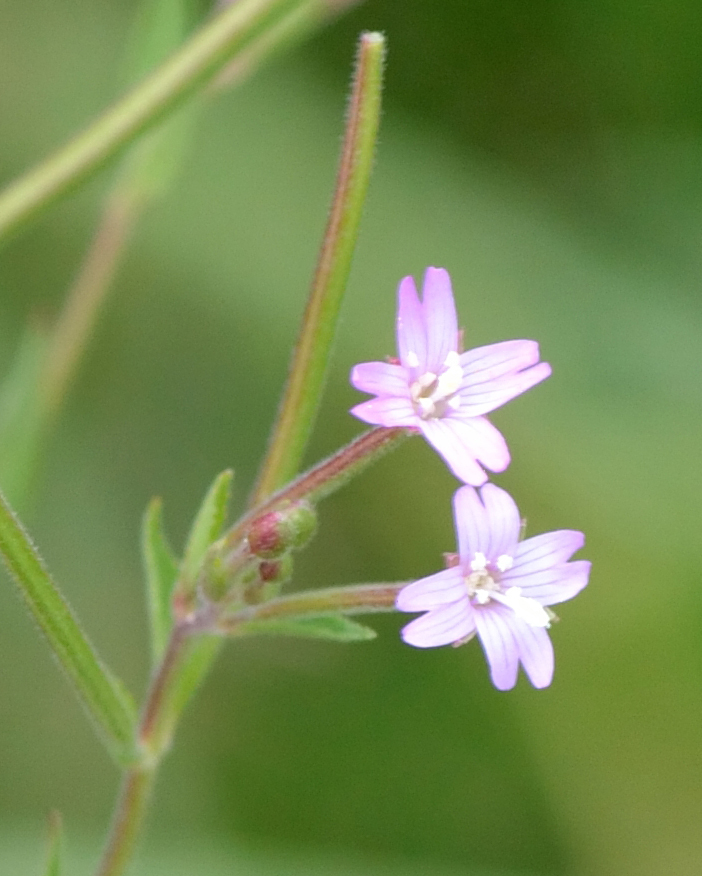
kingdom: Plantae
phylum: Tracheophyta
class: Magnoliopsida
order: Myrtales
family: Onagraceae
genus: Epilobium
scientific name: Epilobium ciliatum
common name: American willowherb
